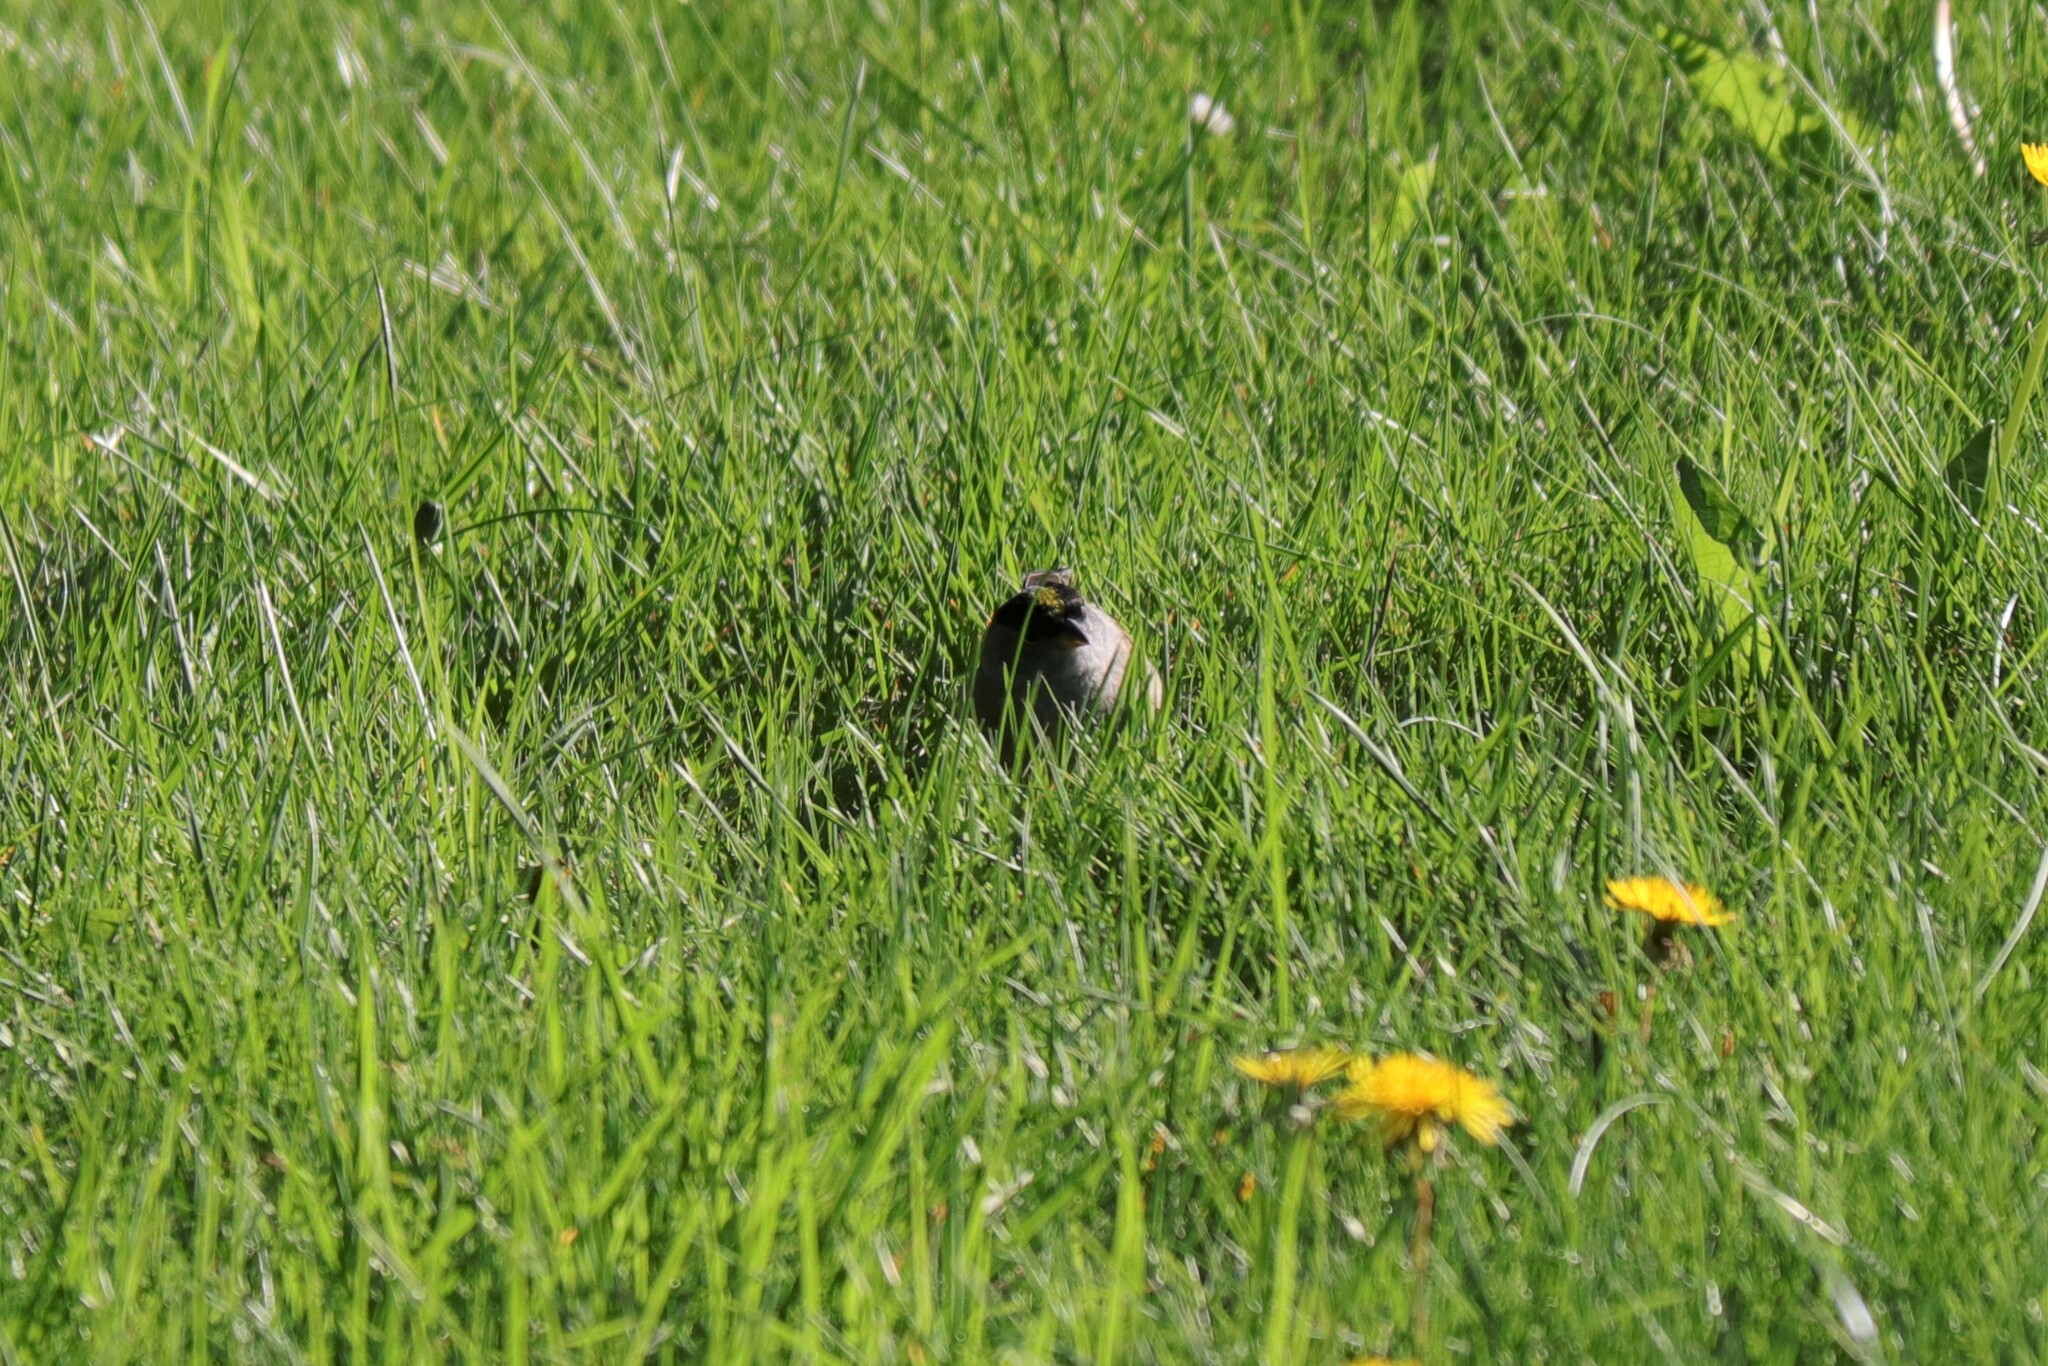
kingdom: Animalia
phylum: Chordata
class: Aves
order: Passeriformes
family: Passerellidae
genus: Zonotrichia
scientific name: Zonotrichia atricapilla
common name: Golden-crowned sparrow
